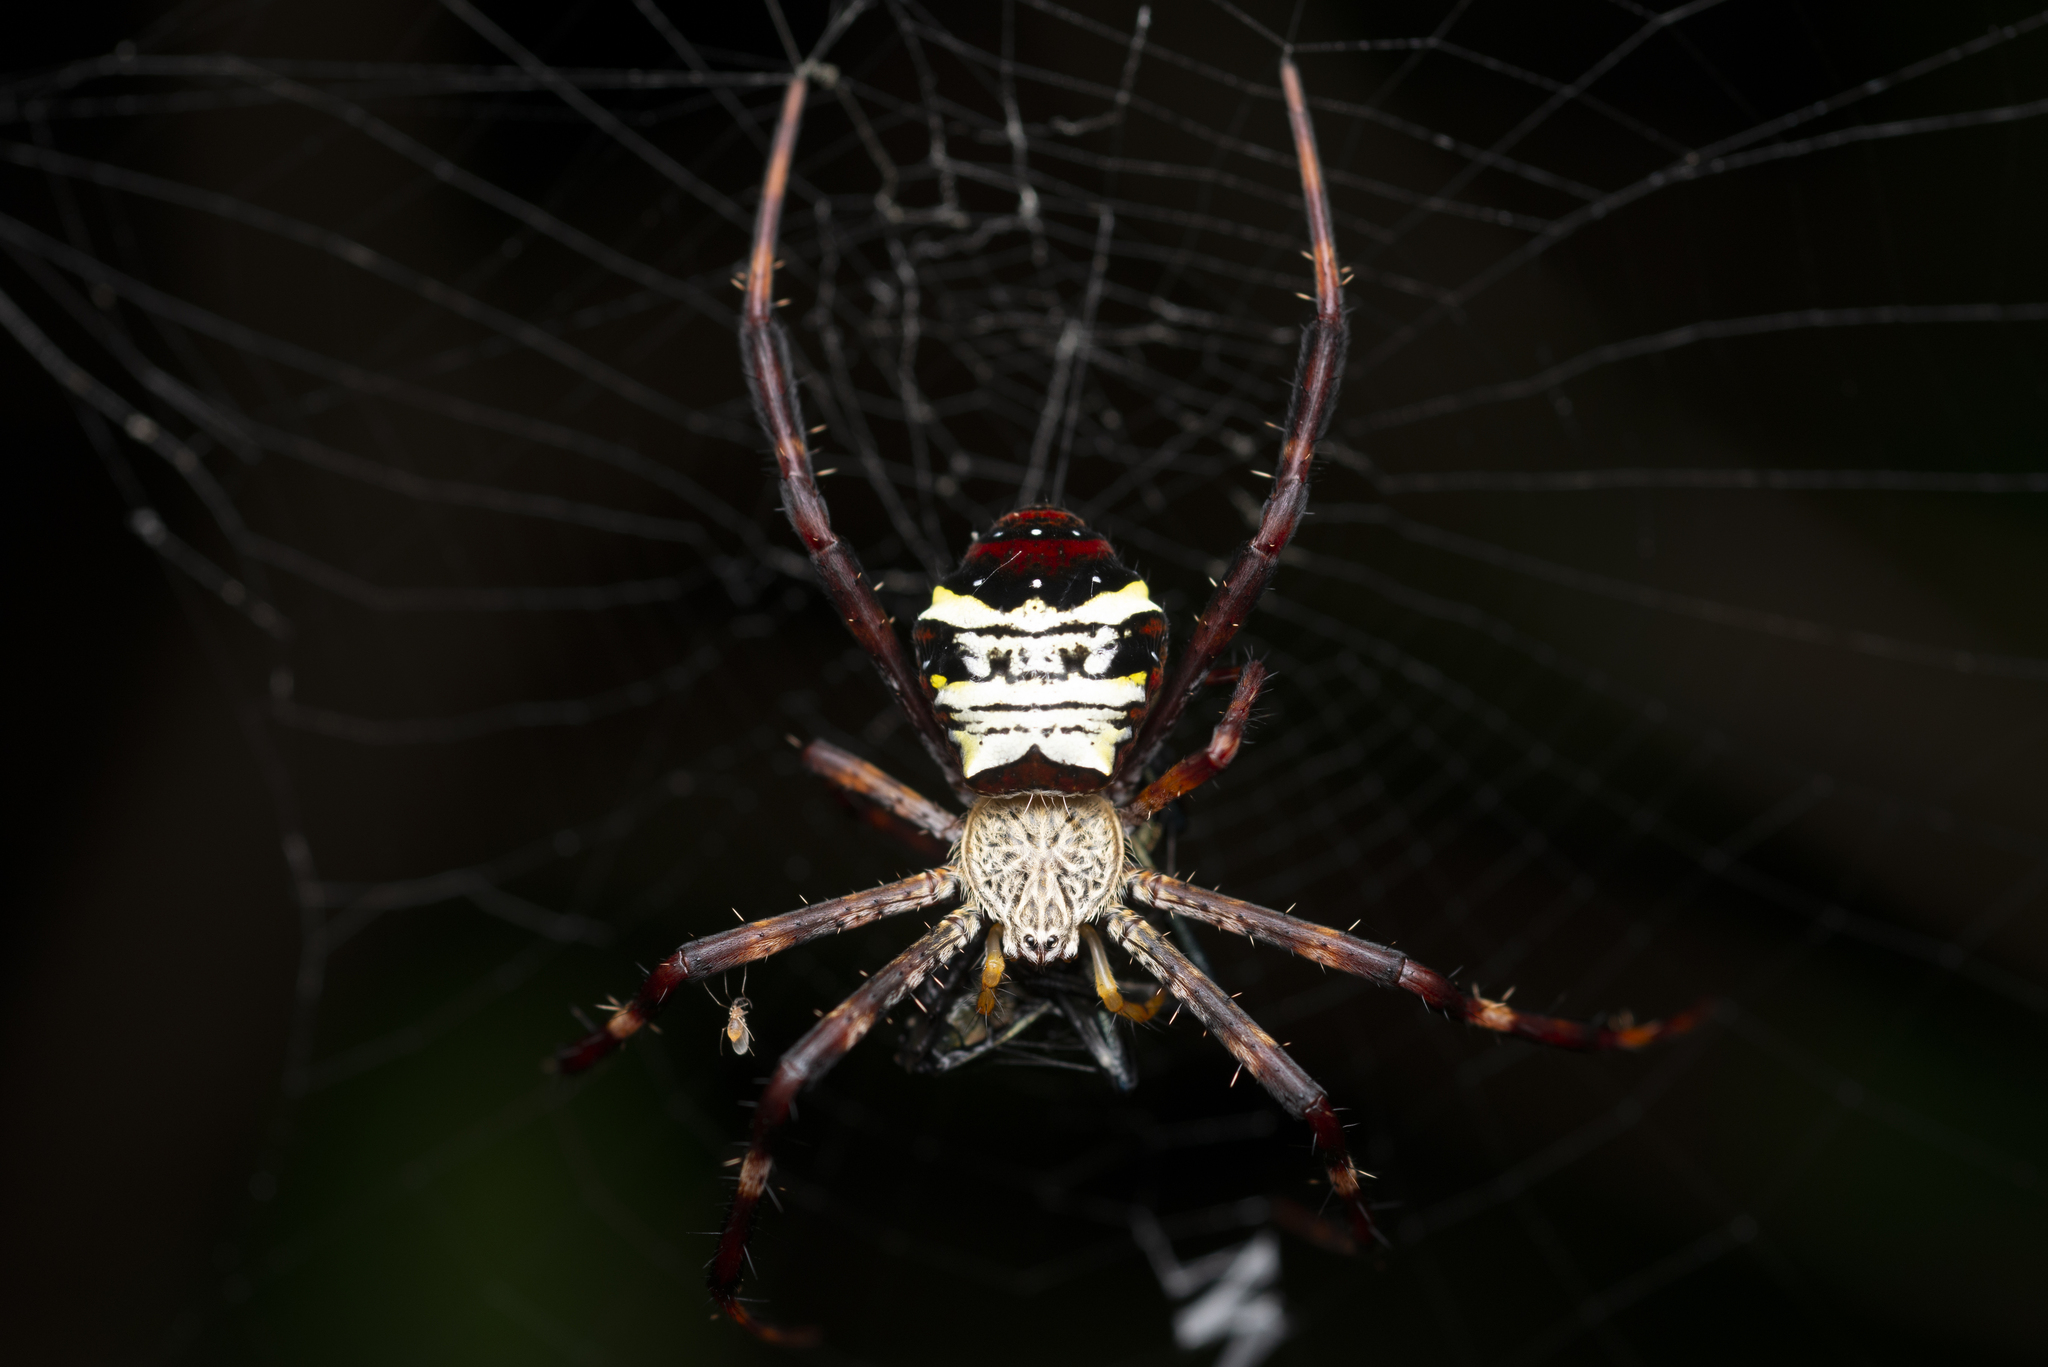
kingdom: Animalia
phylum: Arthropoda
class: Arachnida
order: Araneae
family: Araneidae
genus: Argiope
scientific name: Argiope vietnamensis
